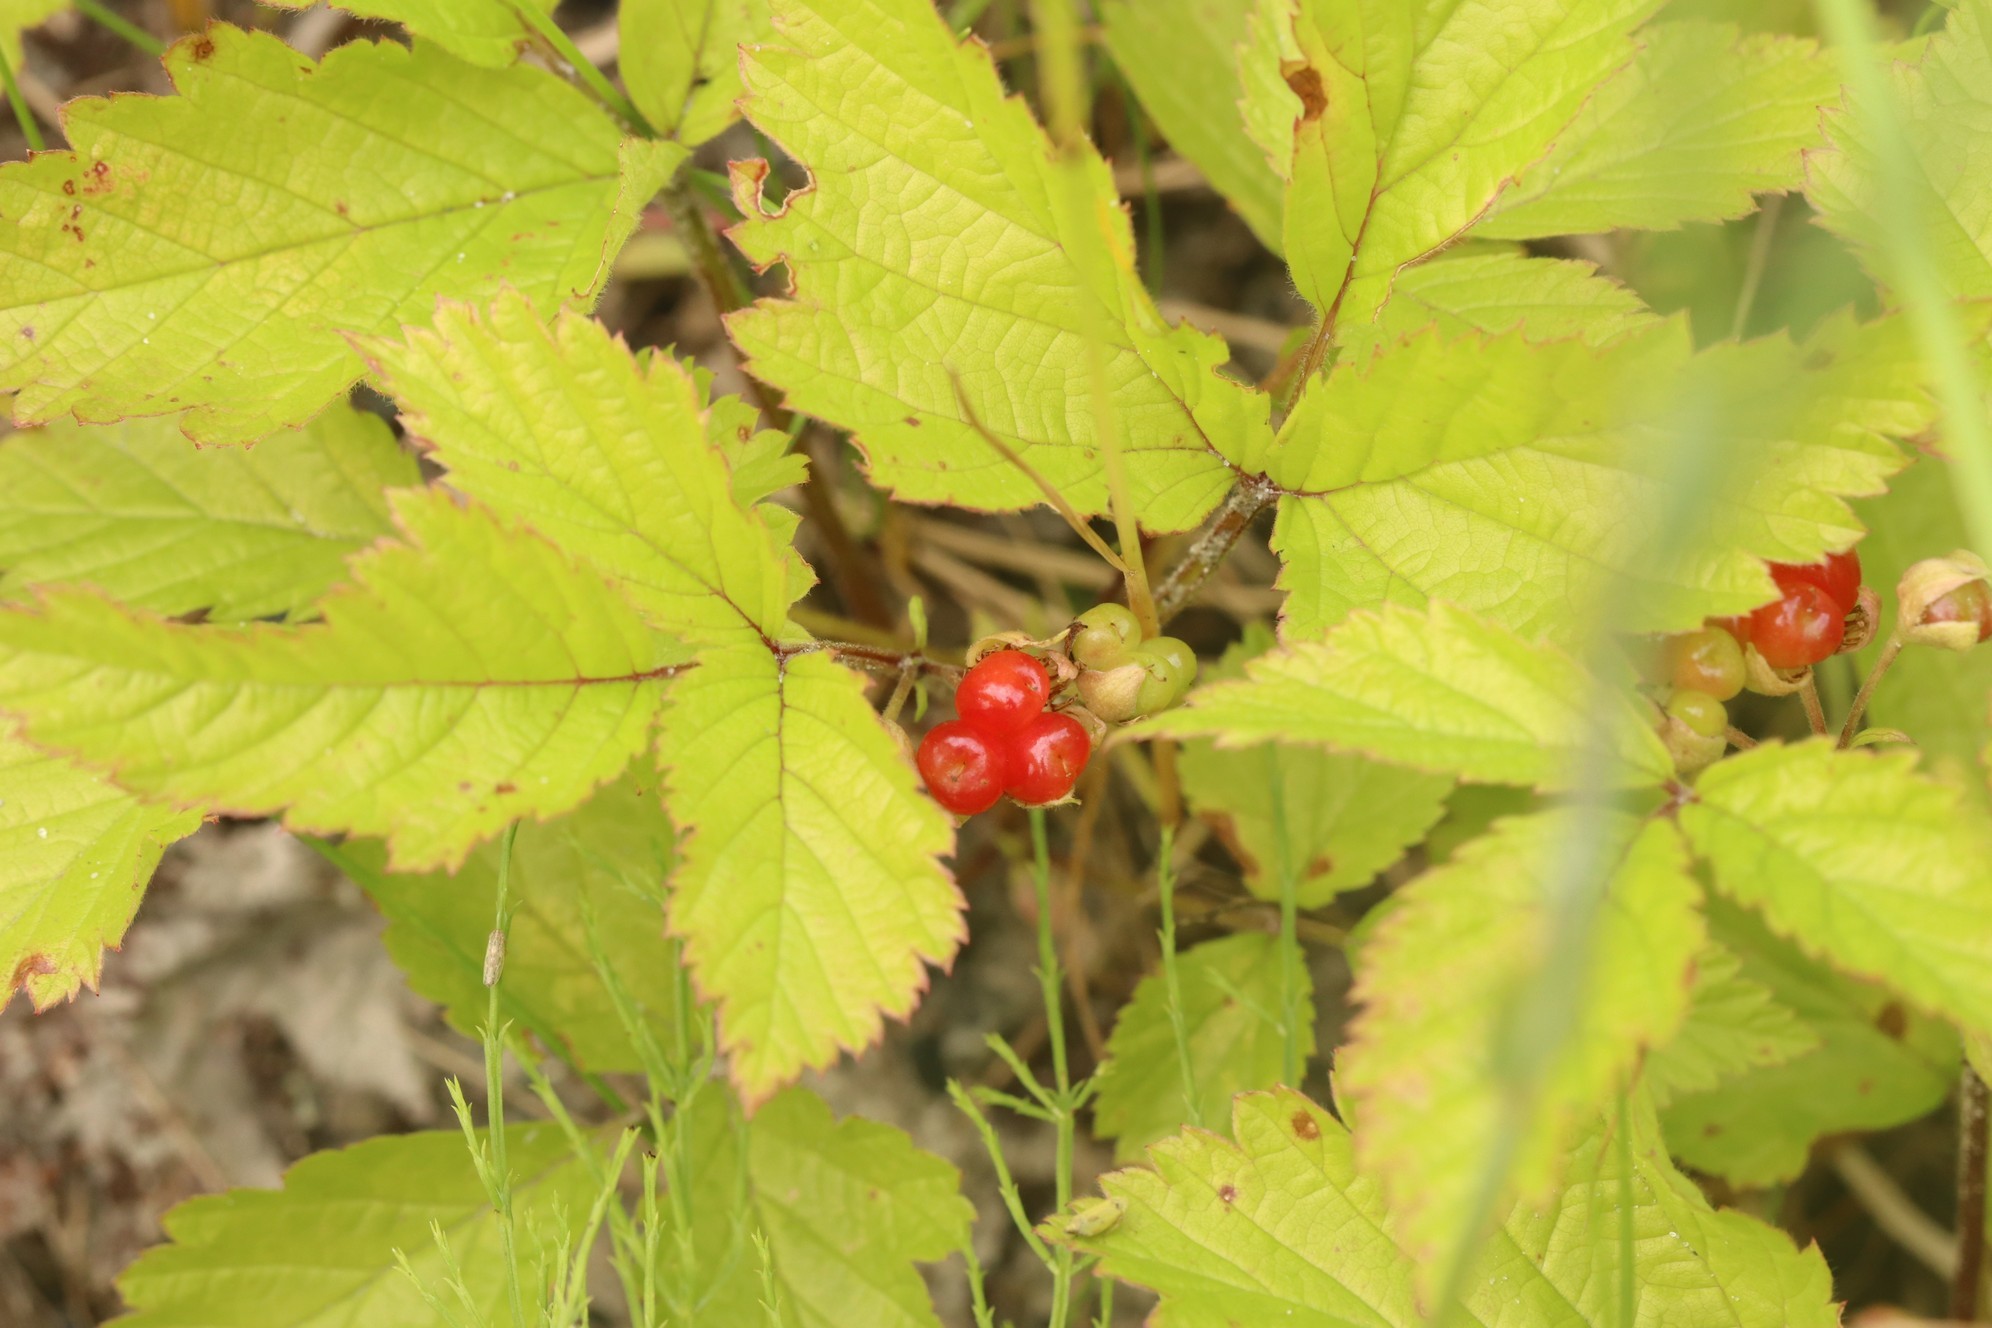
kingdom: Plantae
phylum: Tracheophyta
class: Magnoliopsida
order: Rosales
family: Rosaceae
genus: Rubus
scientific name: Rubus saxatilis
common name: Stone bramble
